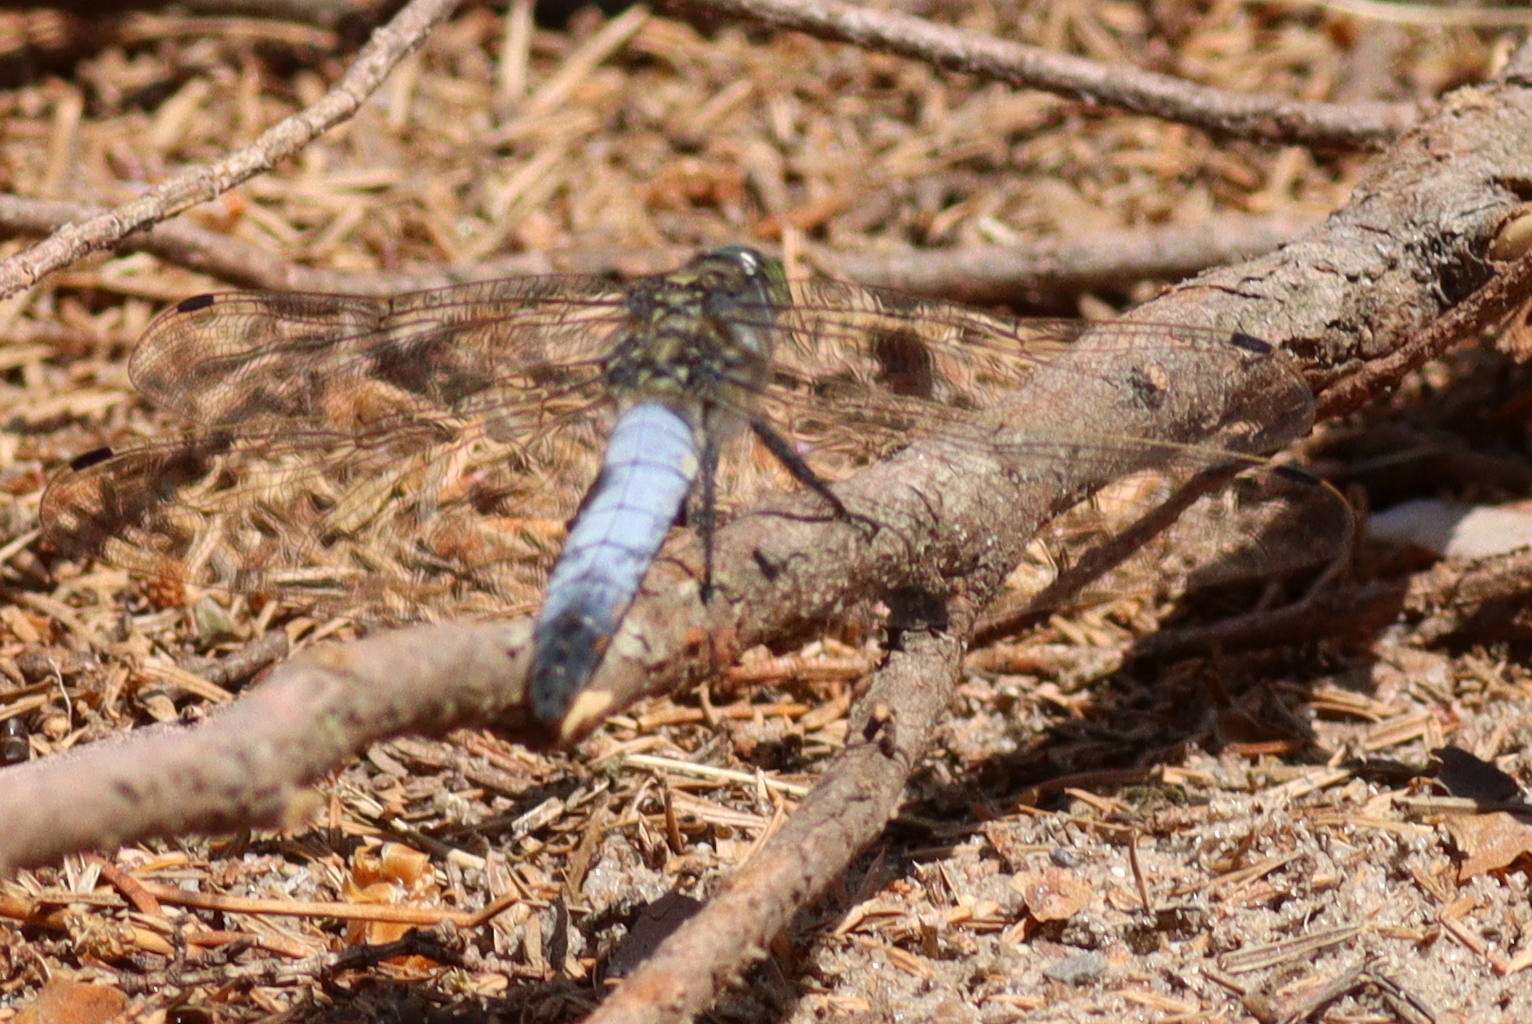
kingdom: Animalia
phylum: Arthropoda
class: Insecta
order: Odonata
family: Libellulidae
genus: Orthetrum
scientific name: Orthetrum cancellatum
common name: Black-tailed skimmer
